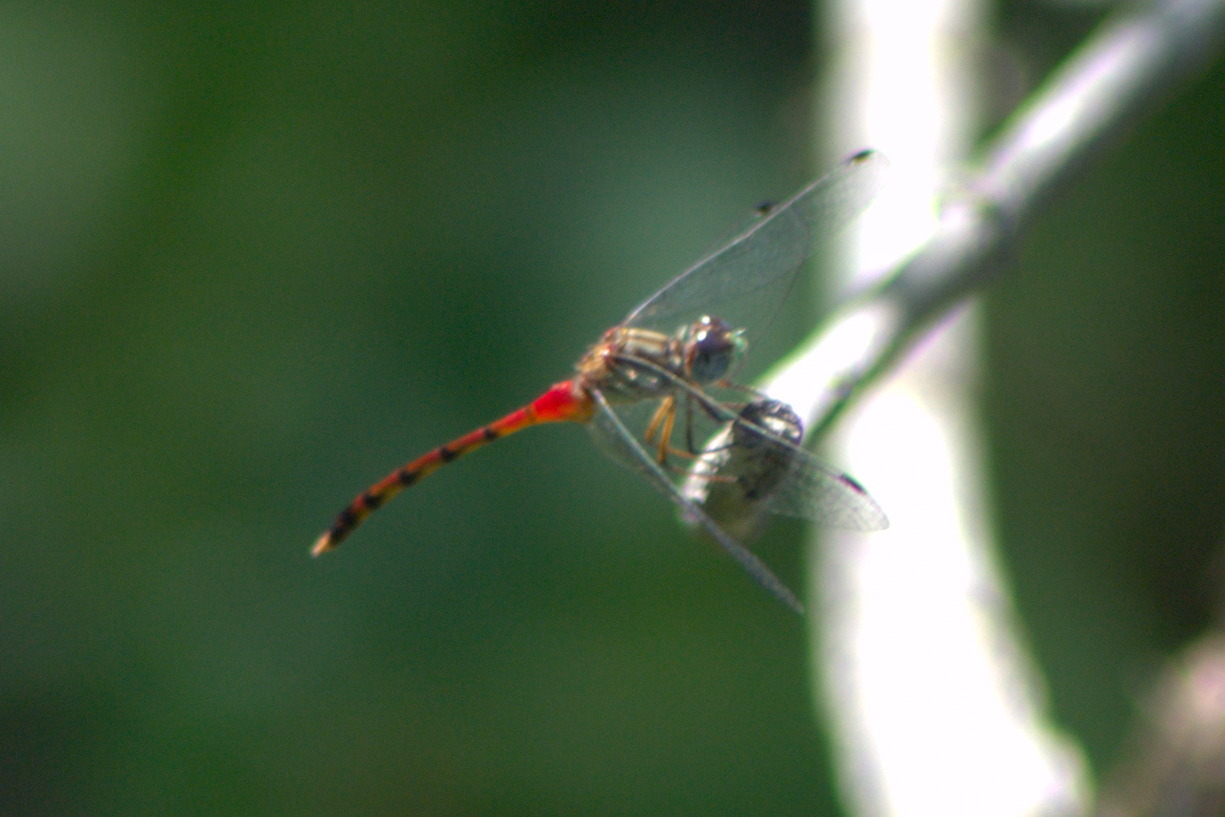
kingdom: Animalia
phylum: Arthropoda
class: Insecta
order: Odonata
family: Libellulidae
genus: Sympetrum
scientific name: Sympetrum ambiguum
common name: Blue-faced meadowhawk
